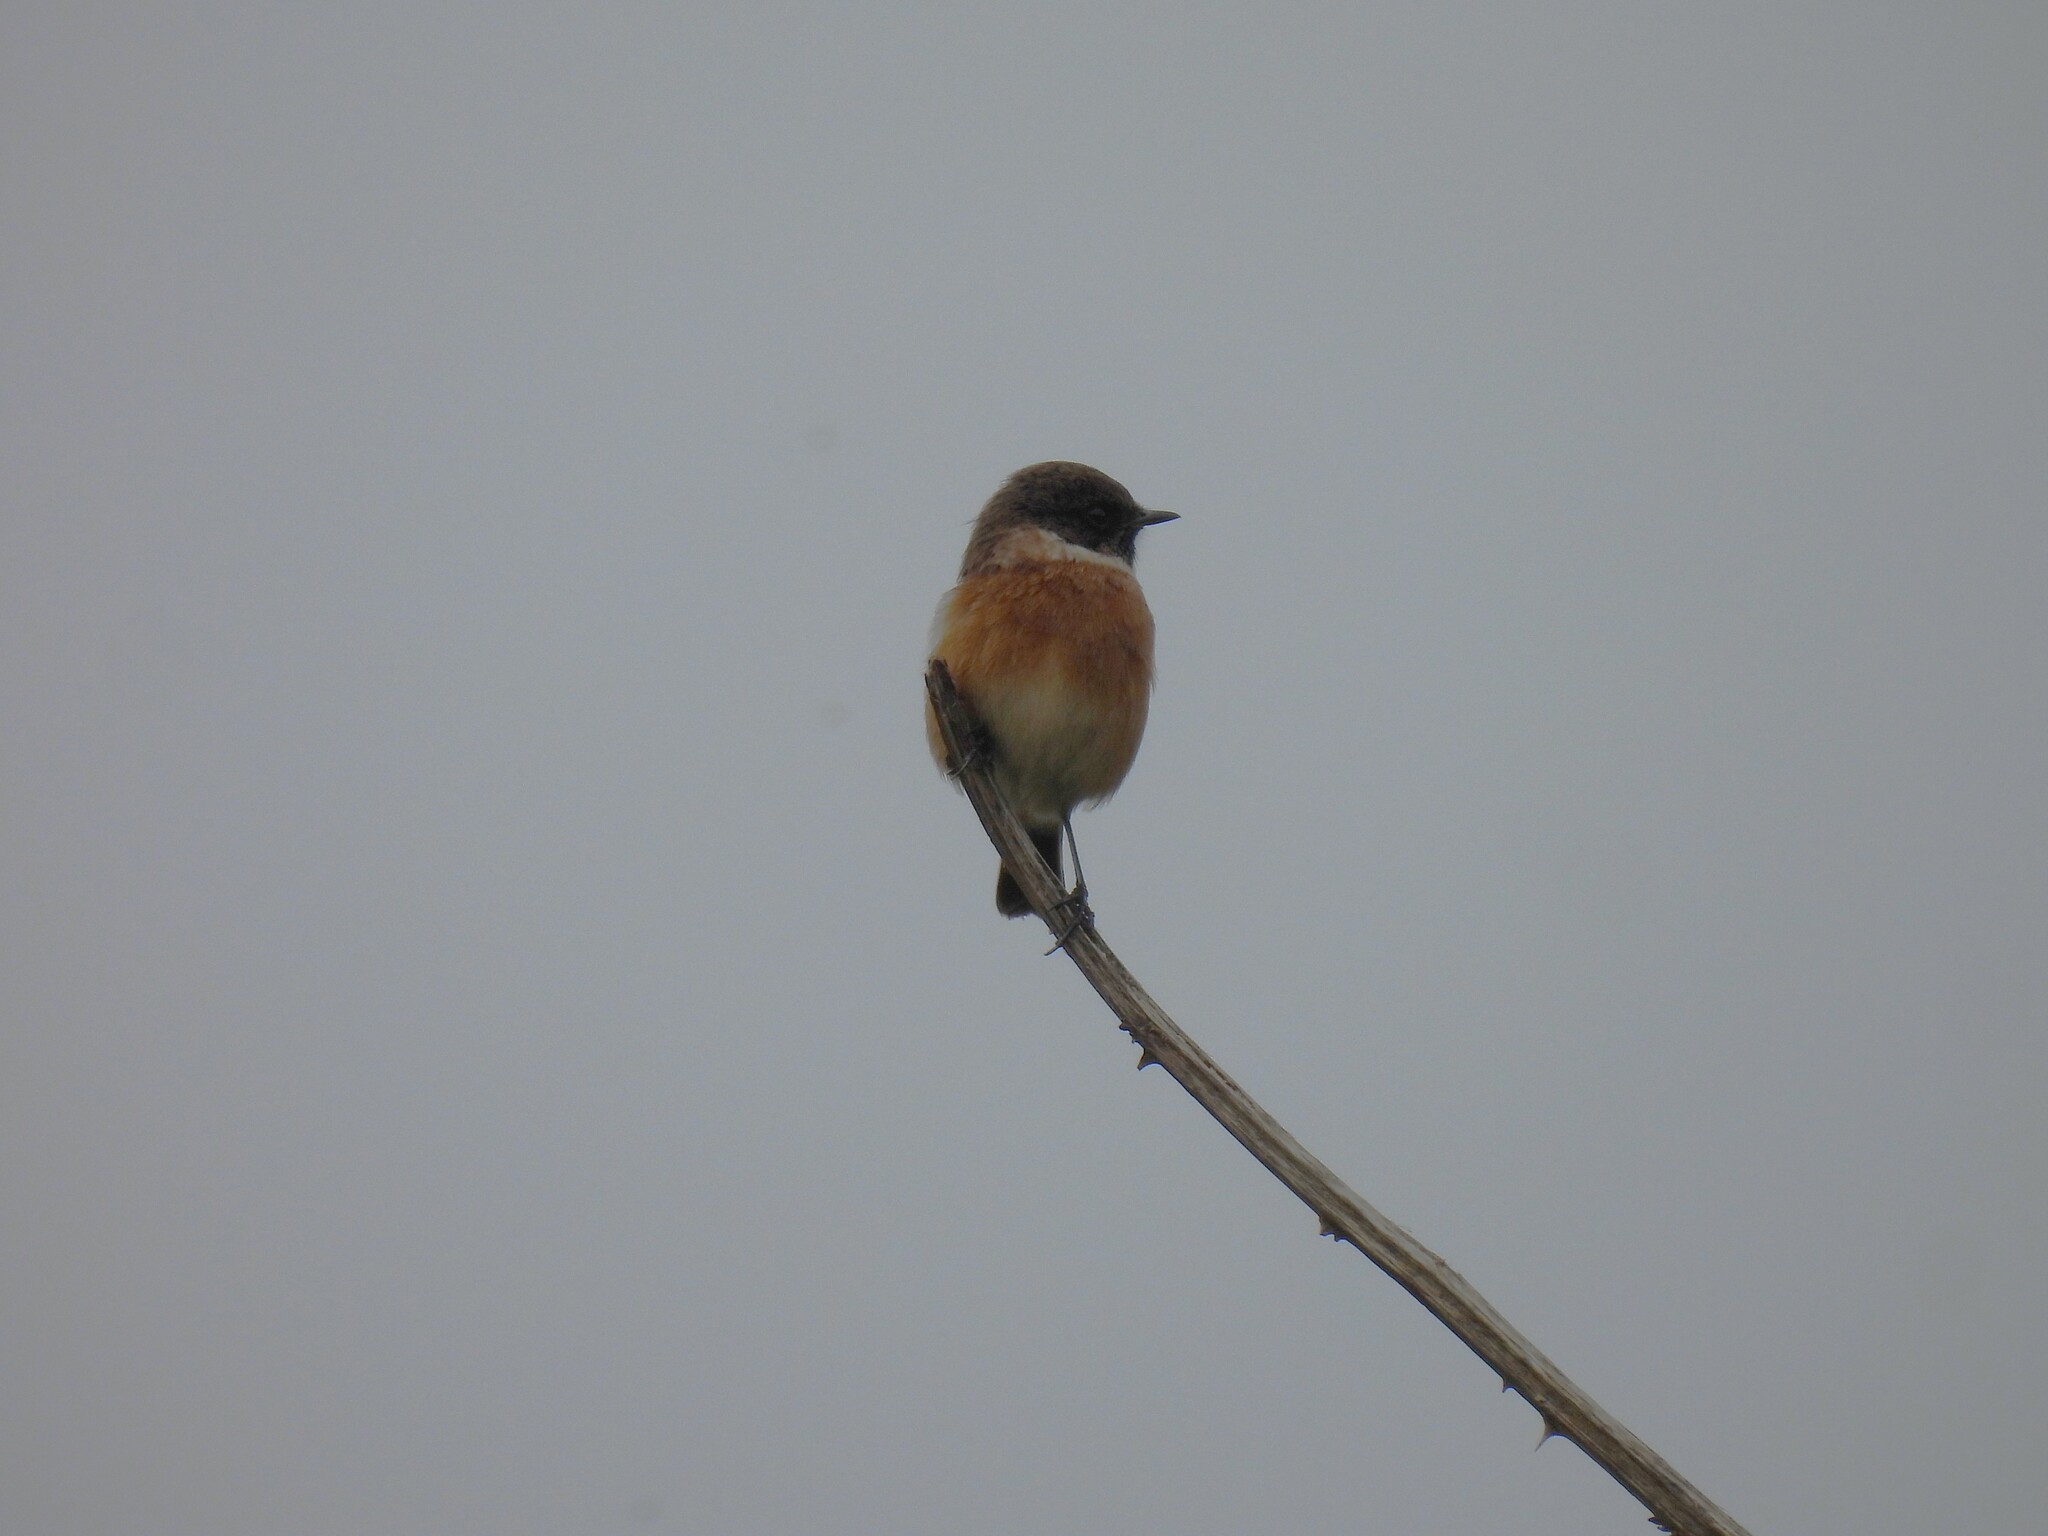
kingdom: Animalia
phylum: Chordata
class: Aves
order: Passeriformes
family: Muscicapidae
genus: Saxicola
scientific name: Saxicola rubicola
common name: European stonechat
